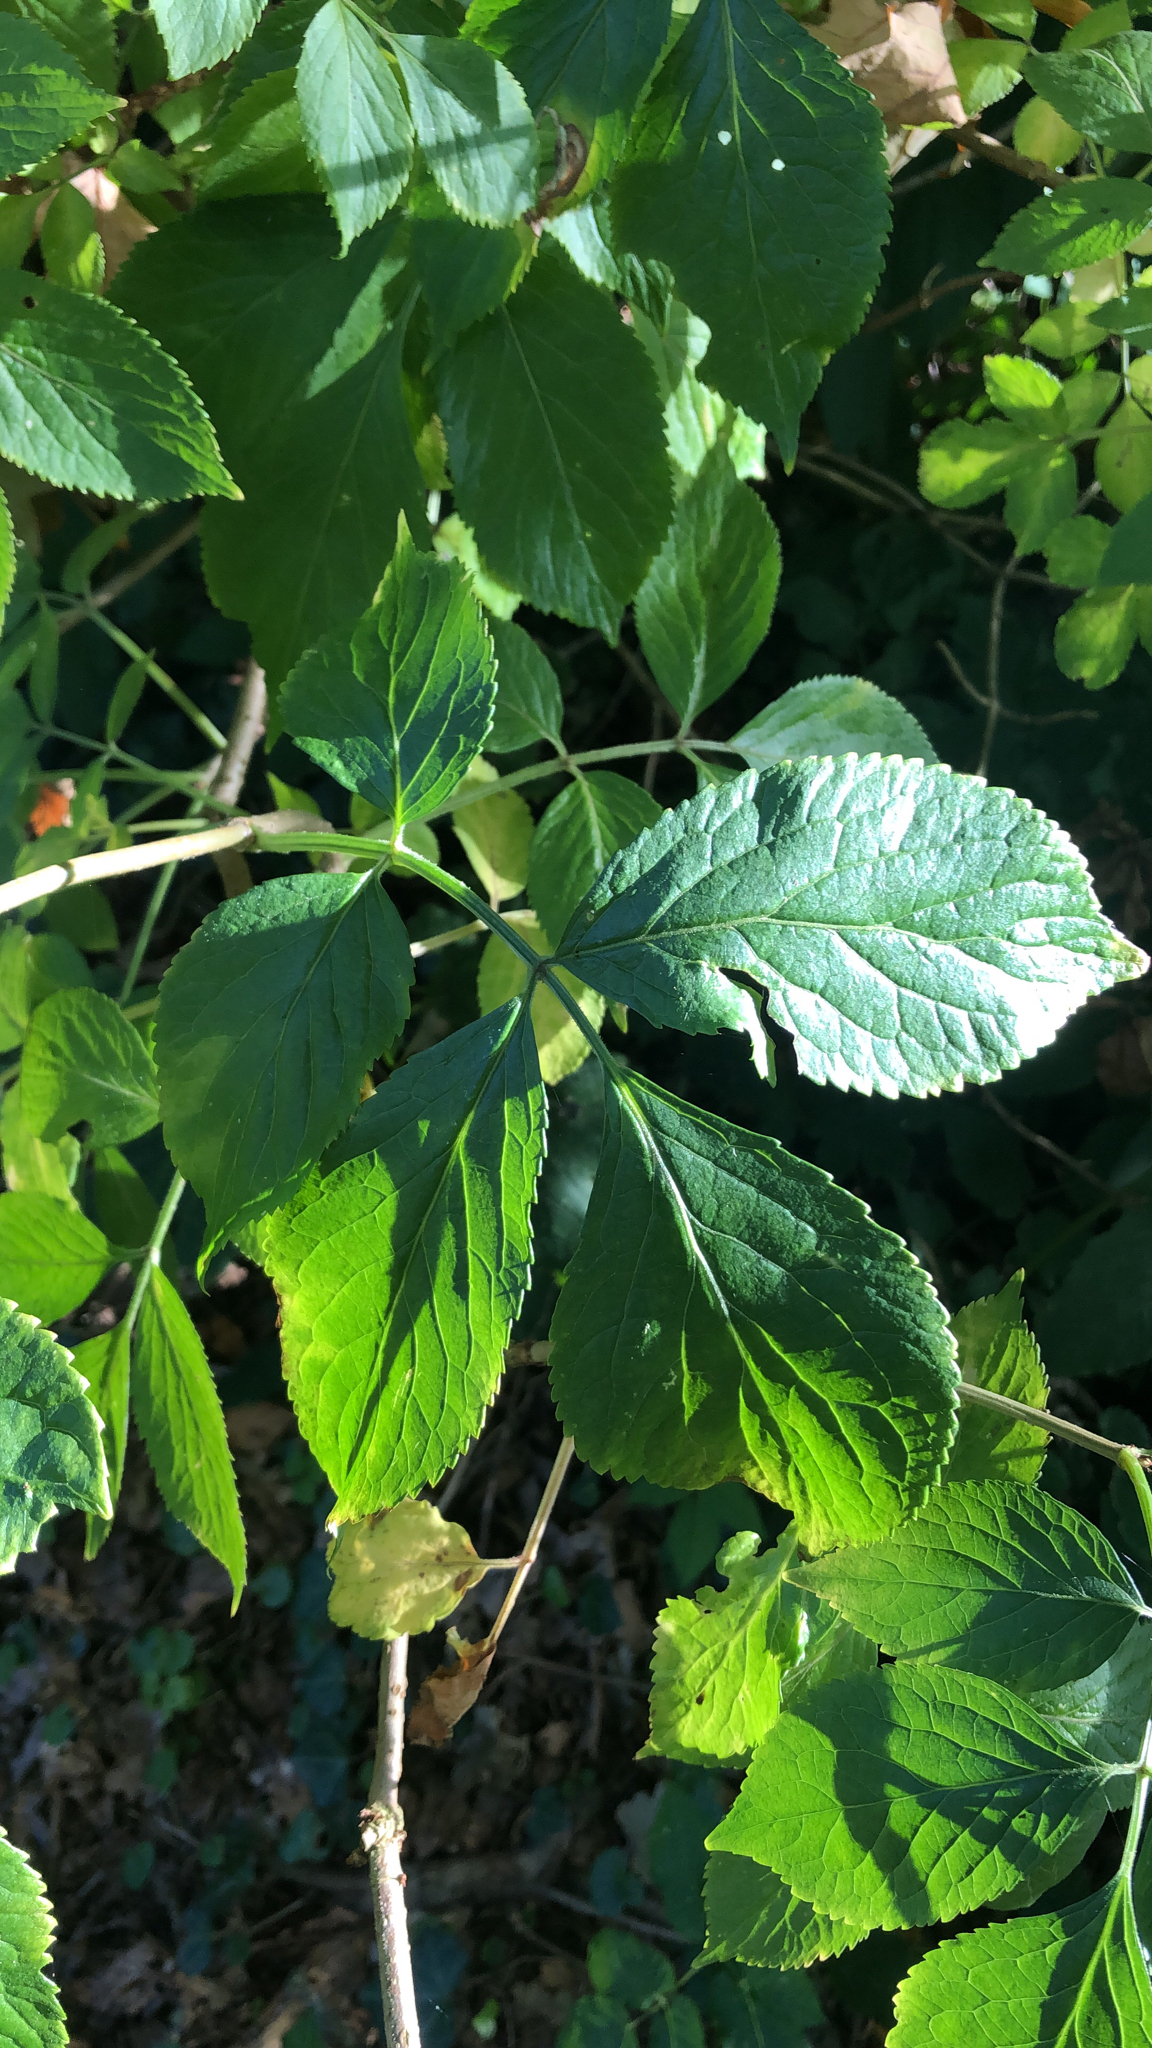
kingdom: Plantae
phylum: Tracheophyta
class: Magnoliopsida
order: Dipsacales
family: Viburnaceae
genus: Sambucus
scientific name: Sambucus nigra
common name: Elder
